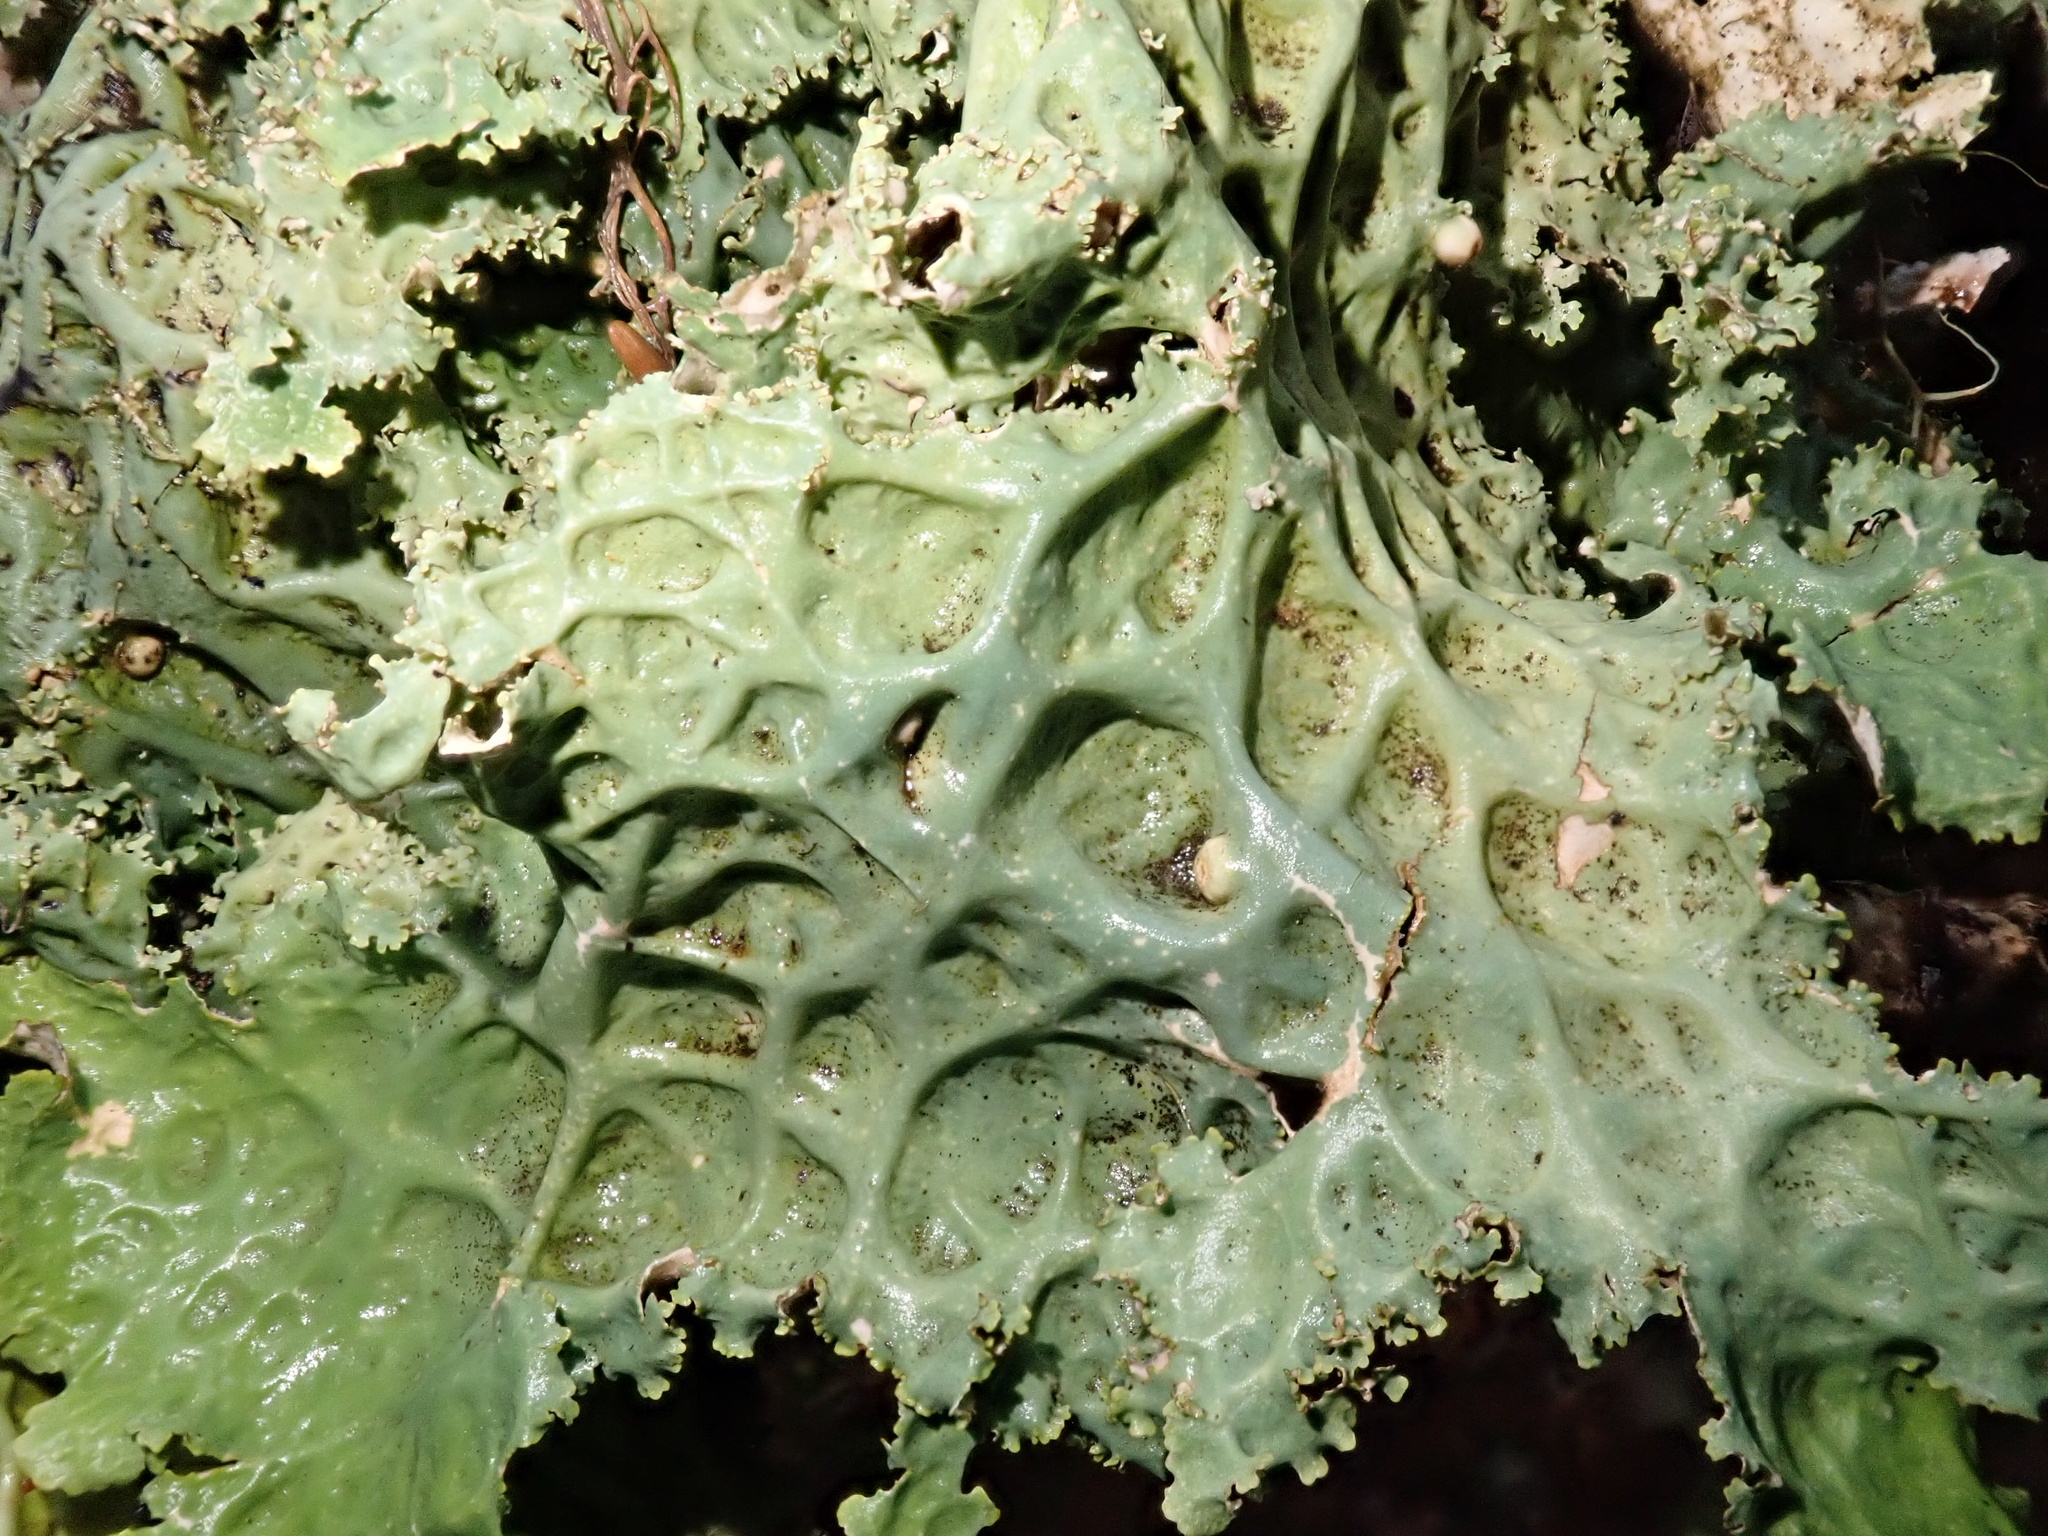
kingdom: Fungi
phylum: Ascomycota
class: Lecanoromycetes
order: Peltigerales
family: Lobariaceae
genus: Lobaria
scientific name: Lobaria oregana
